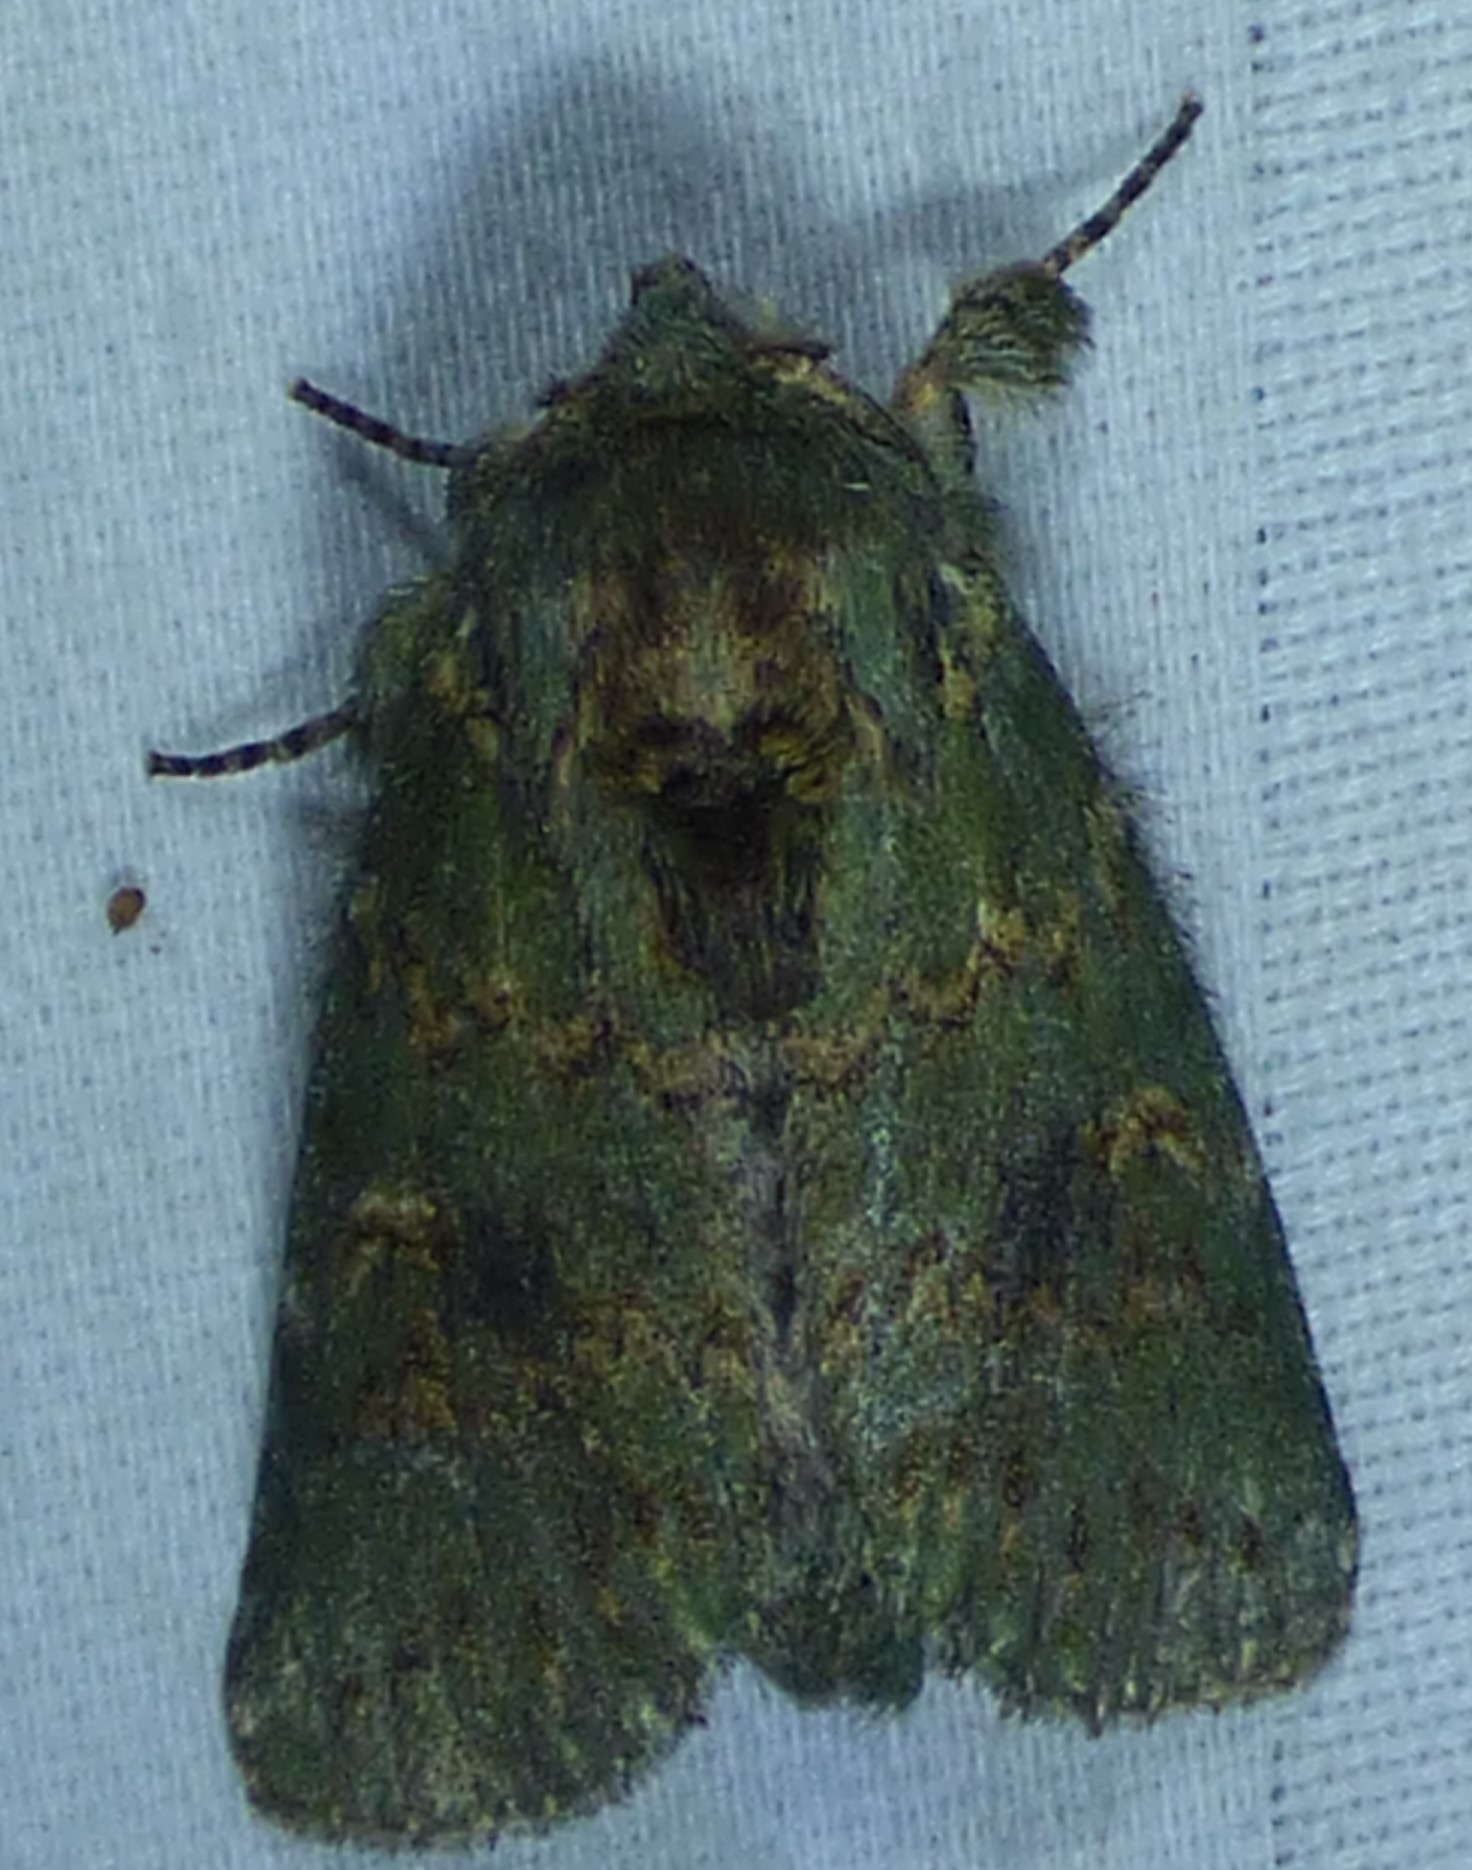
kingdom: Animalia
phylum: Arthropoda
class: Insecta
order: Lepidoptera
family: Notodontidae
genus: Disphragis
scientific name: Disphragis Cecrita biundata
